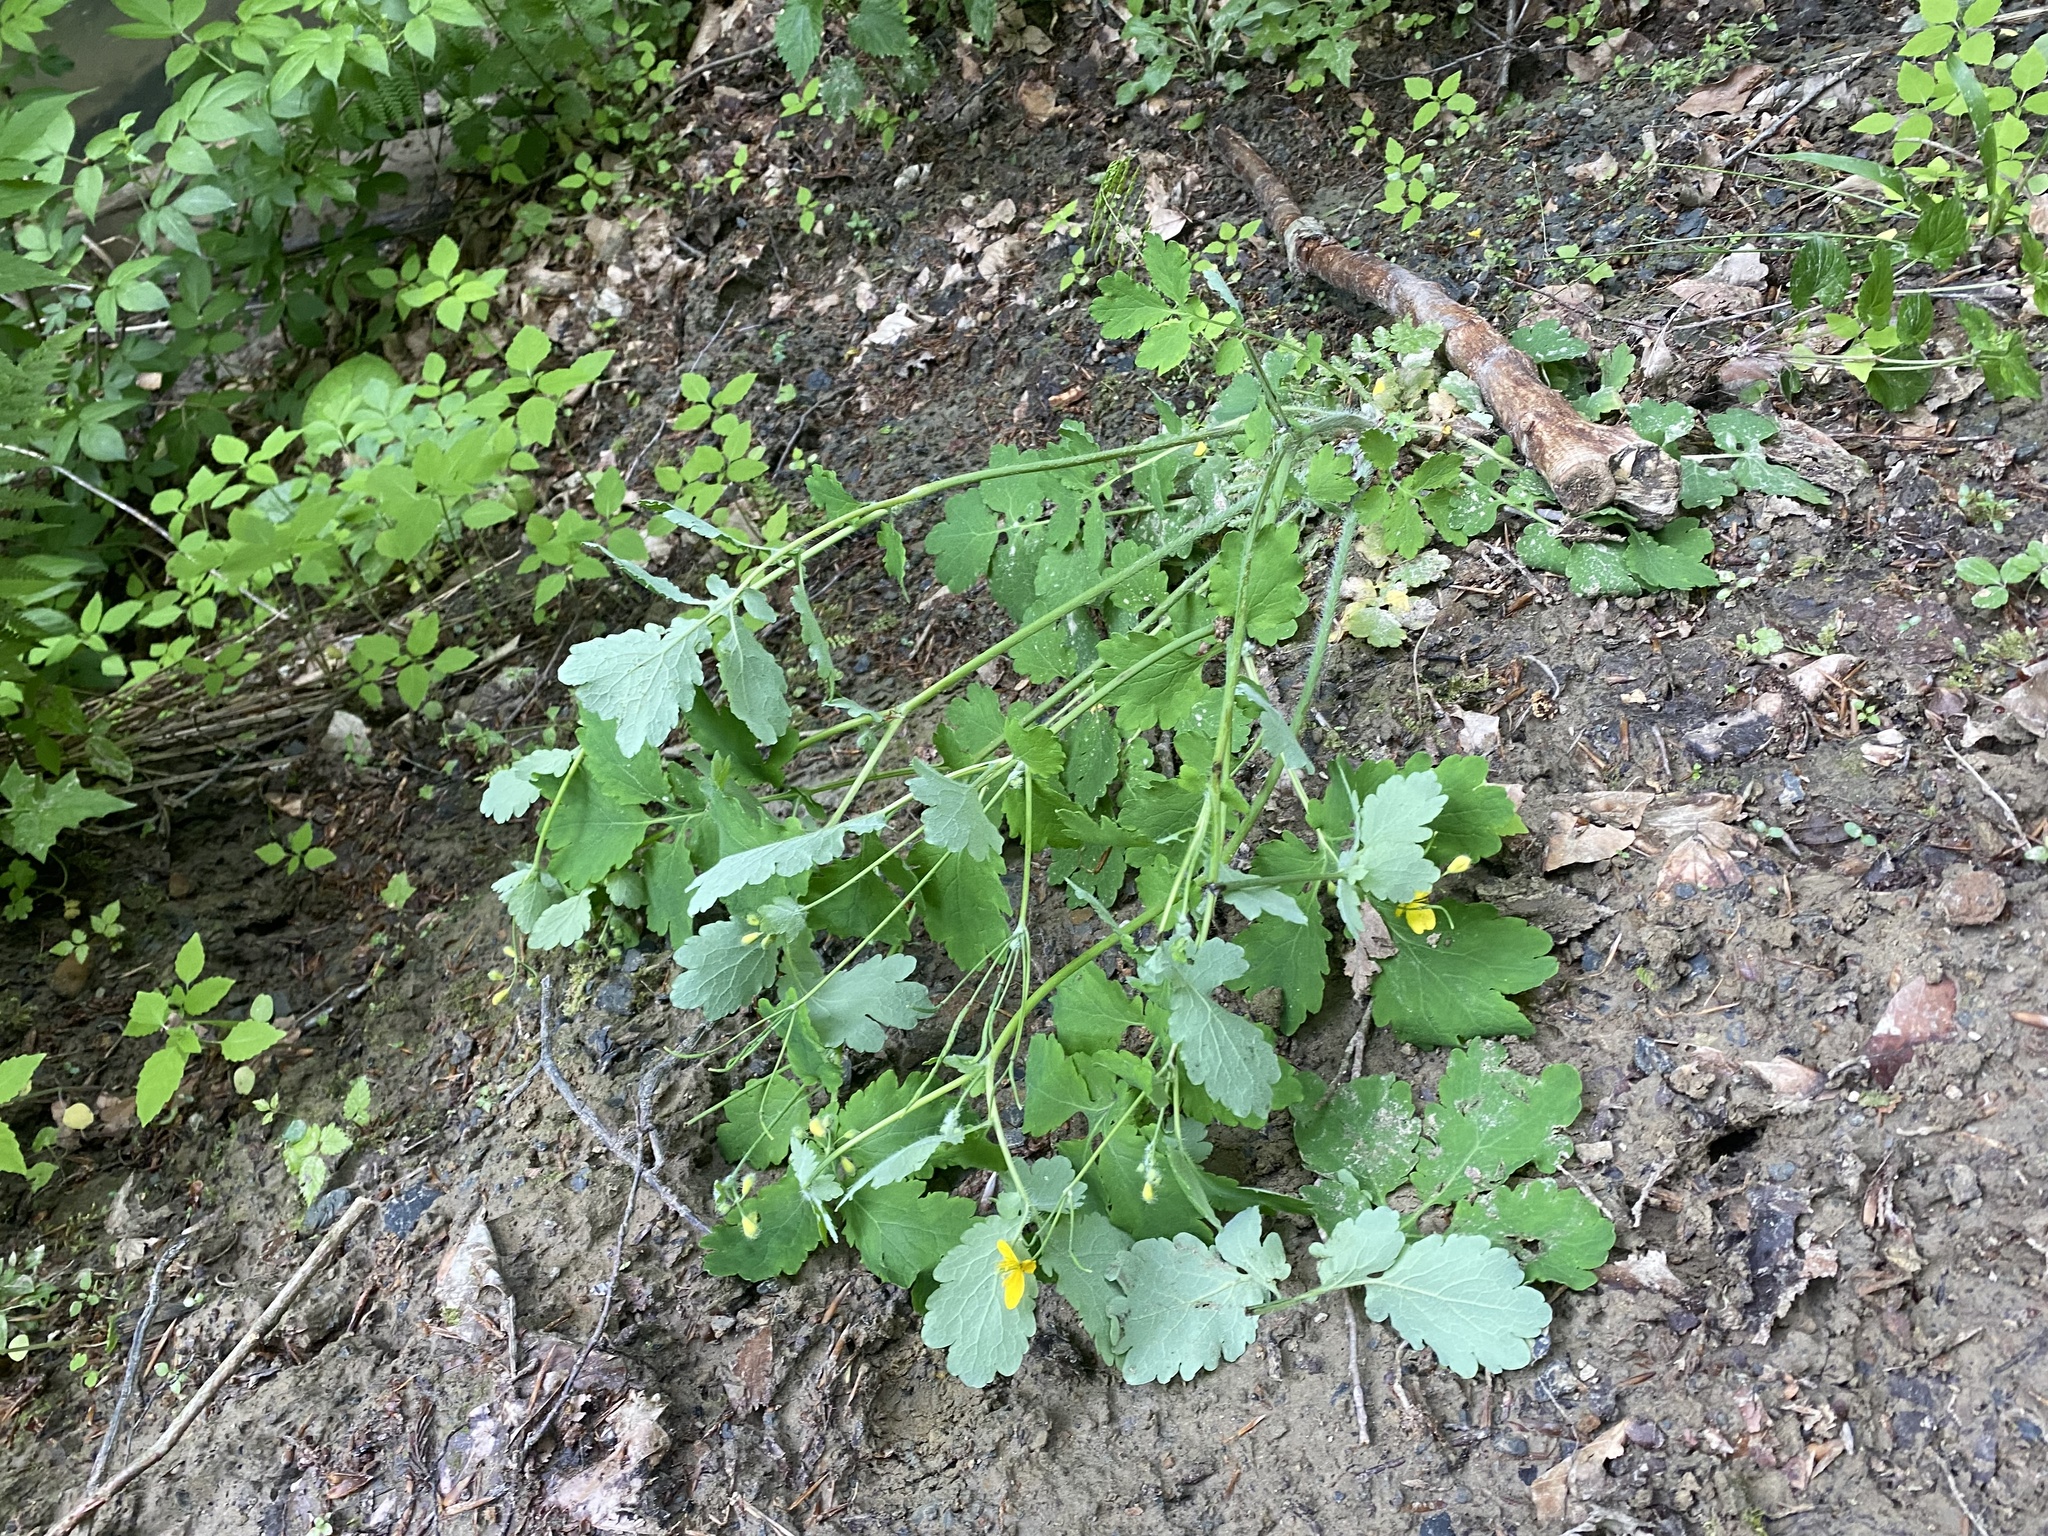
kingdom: Plantae
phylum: Tracheophyta
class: Magnoliopsida
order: Ranunculales
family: Papaveraceae
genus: Chelidonium
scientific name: Chelidonium majus
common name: Greater celandine
